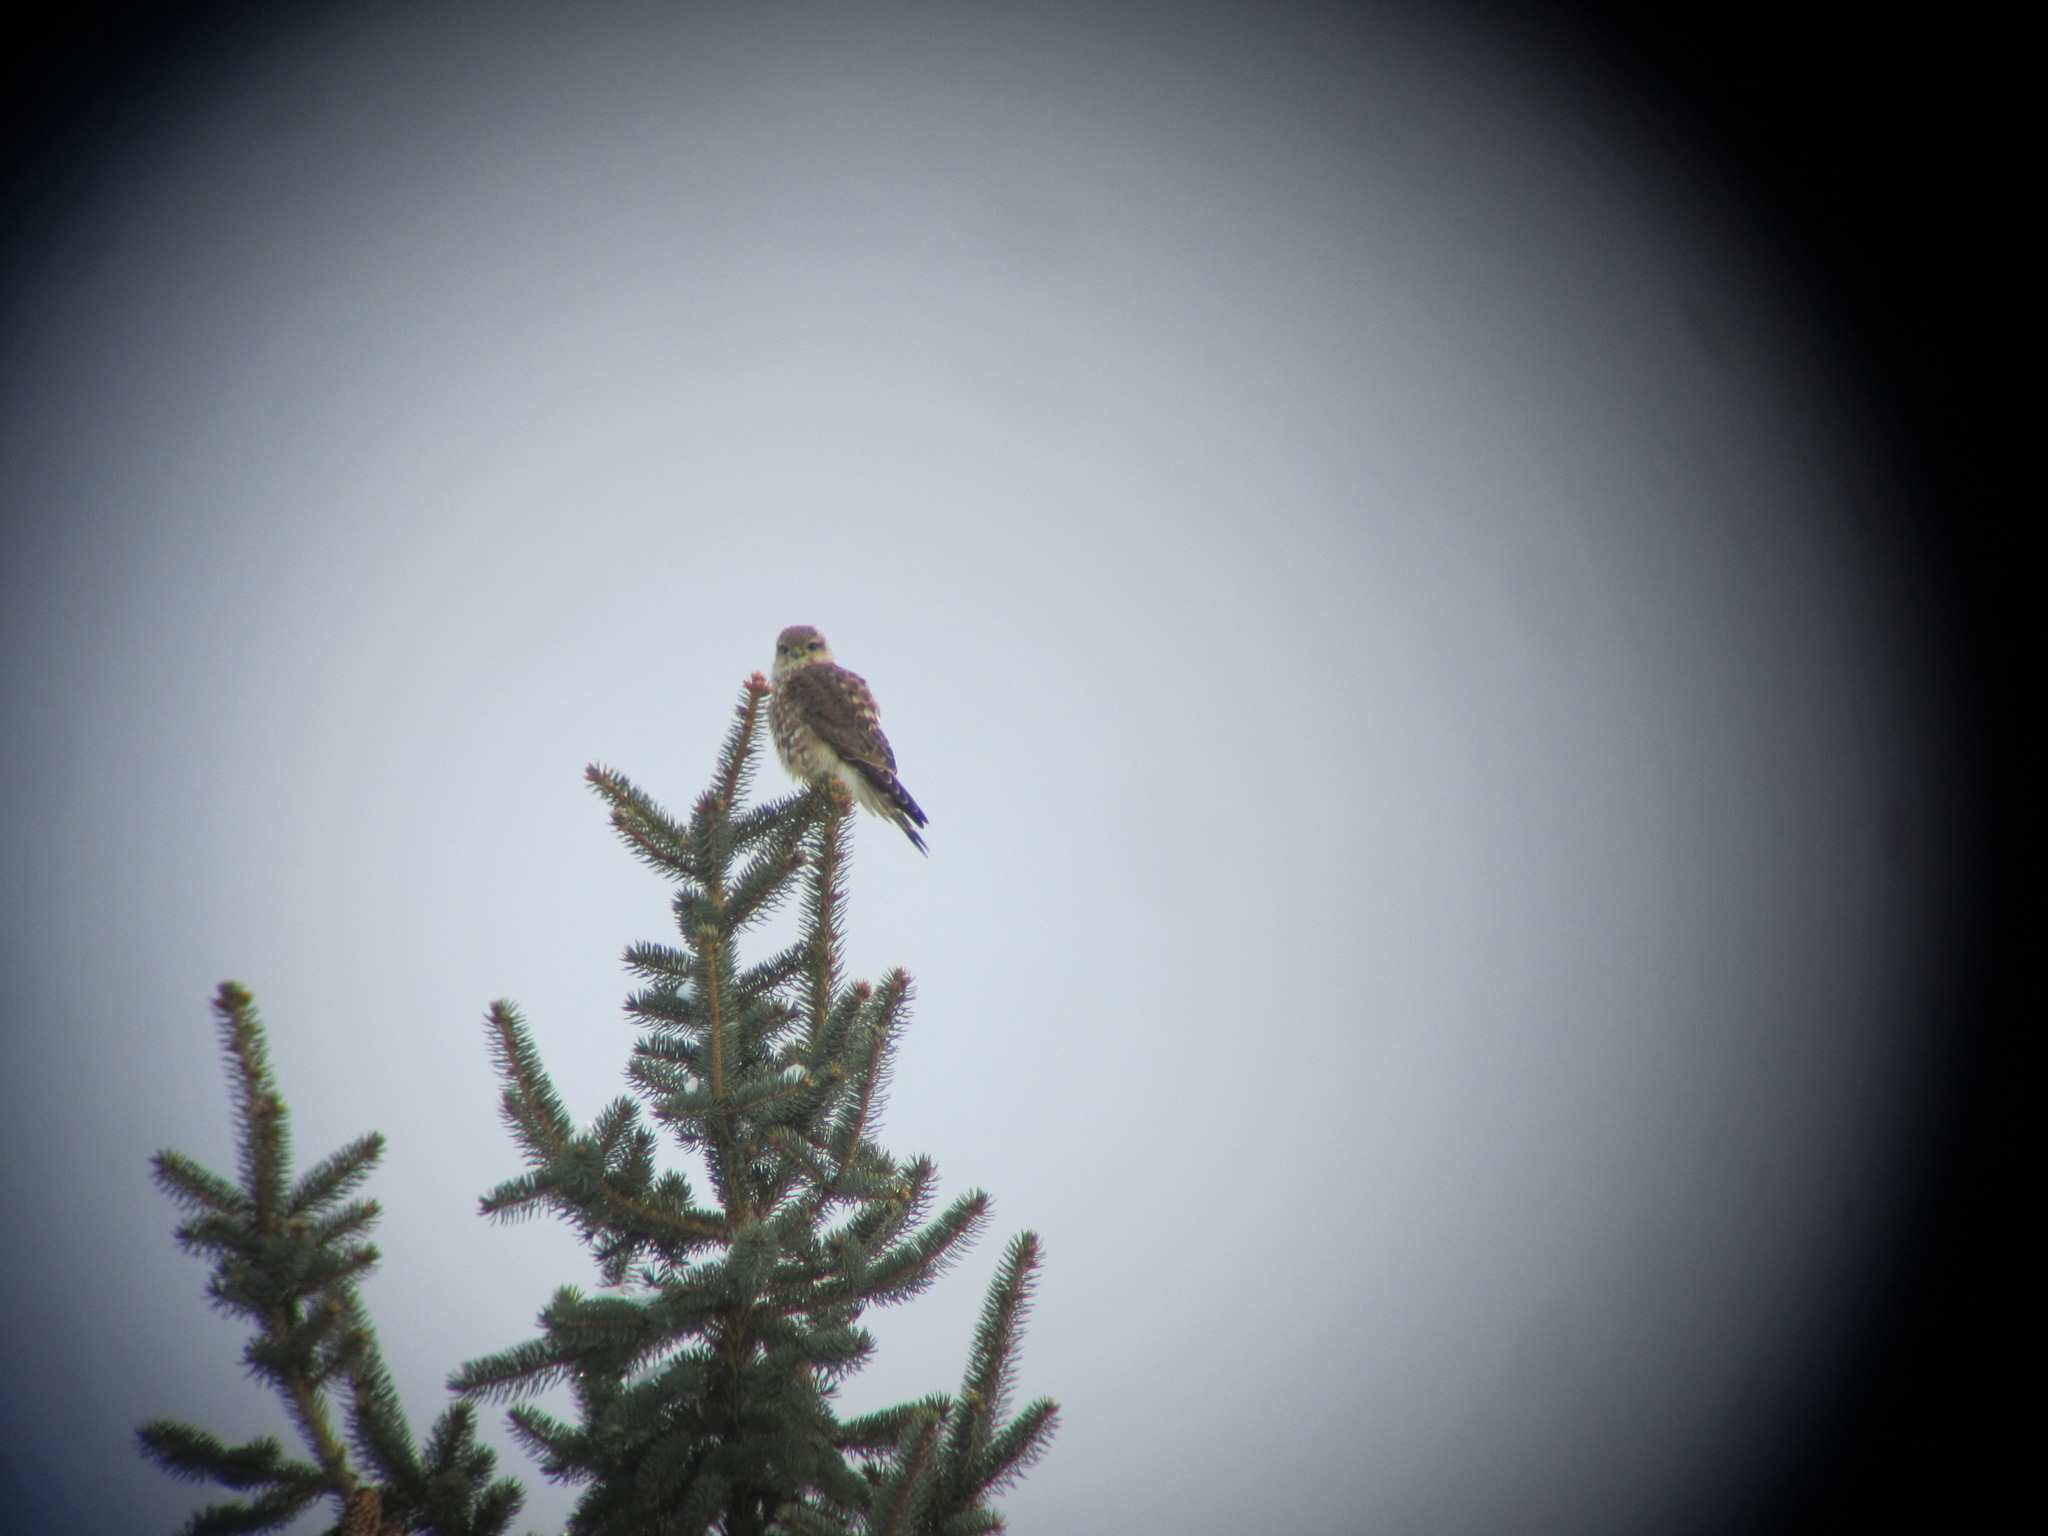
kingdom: Animalia
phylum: Chordata
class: Aves
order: Falconiformes
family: Falconidae
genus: Falco
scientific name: Falco columbarius
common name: Merlin
